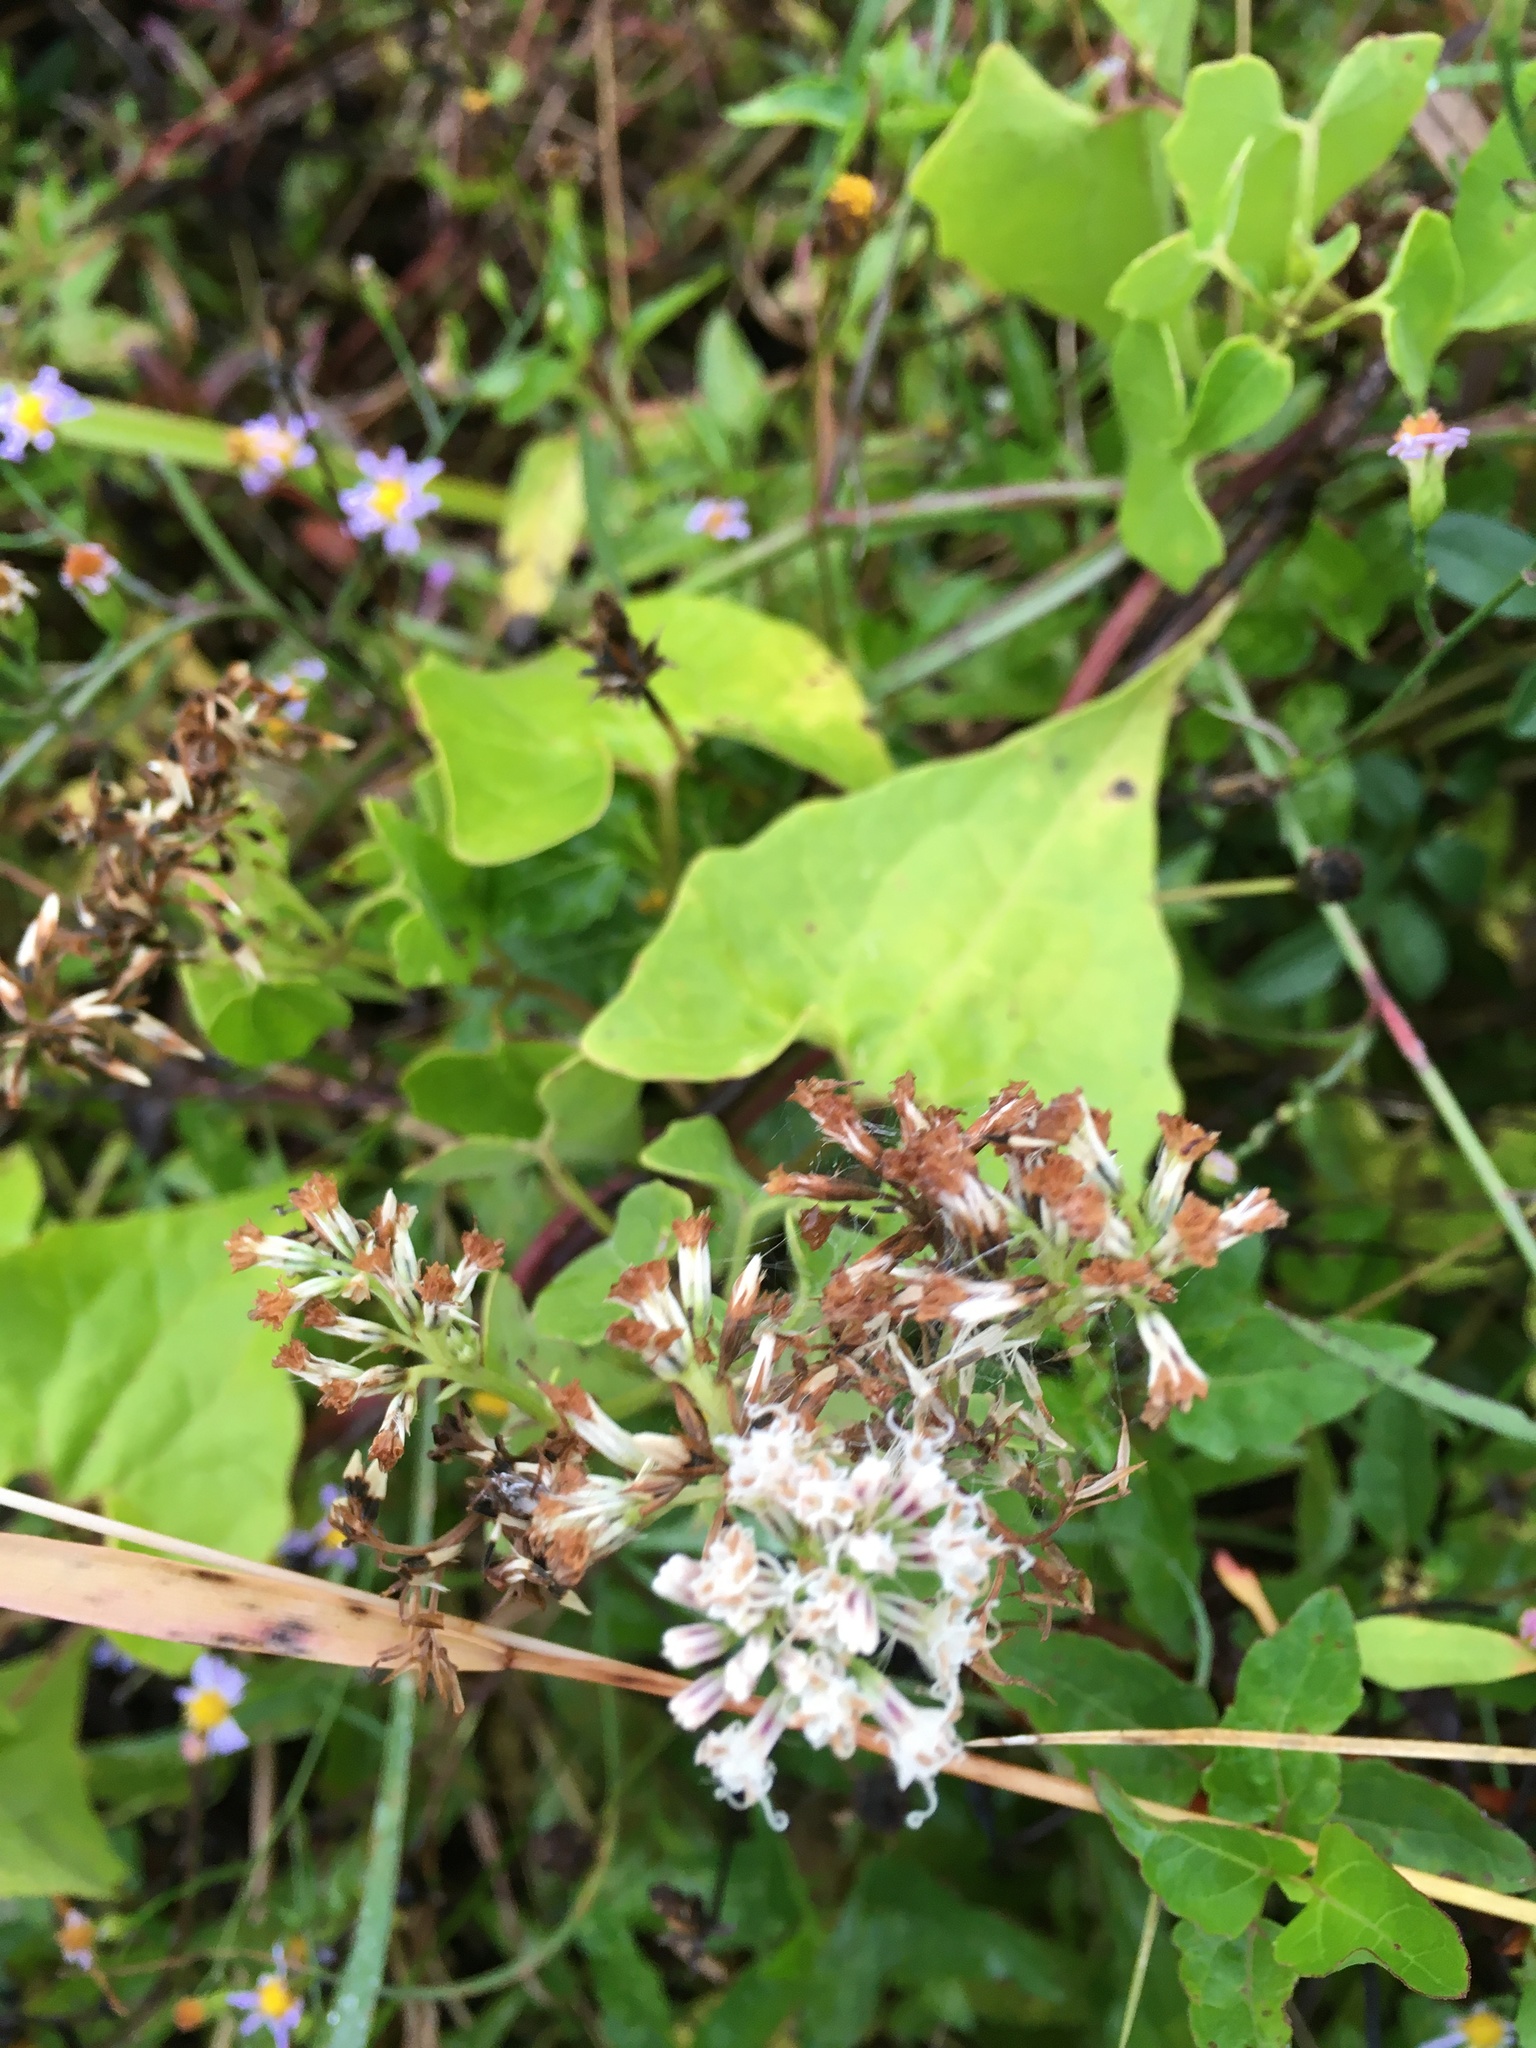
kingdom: Plantae
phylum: Tracheophyta
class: Magnoliopsida
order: Asterales
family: Asteraceae
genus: Mikania
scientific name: Mikania scandens
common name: Climbing hempvine
